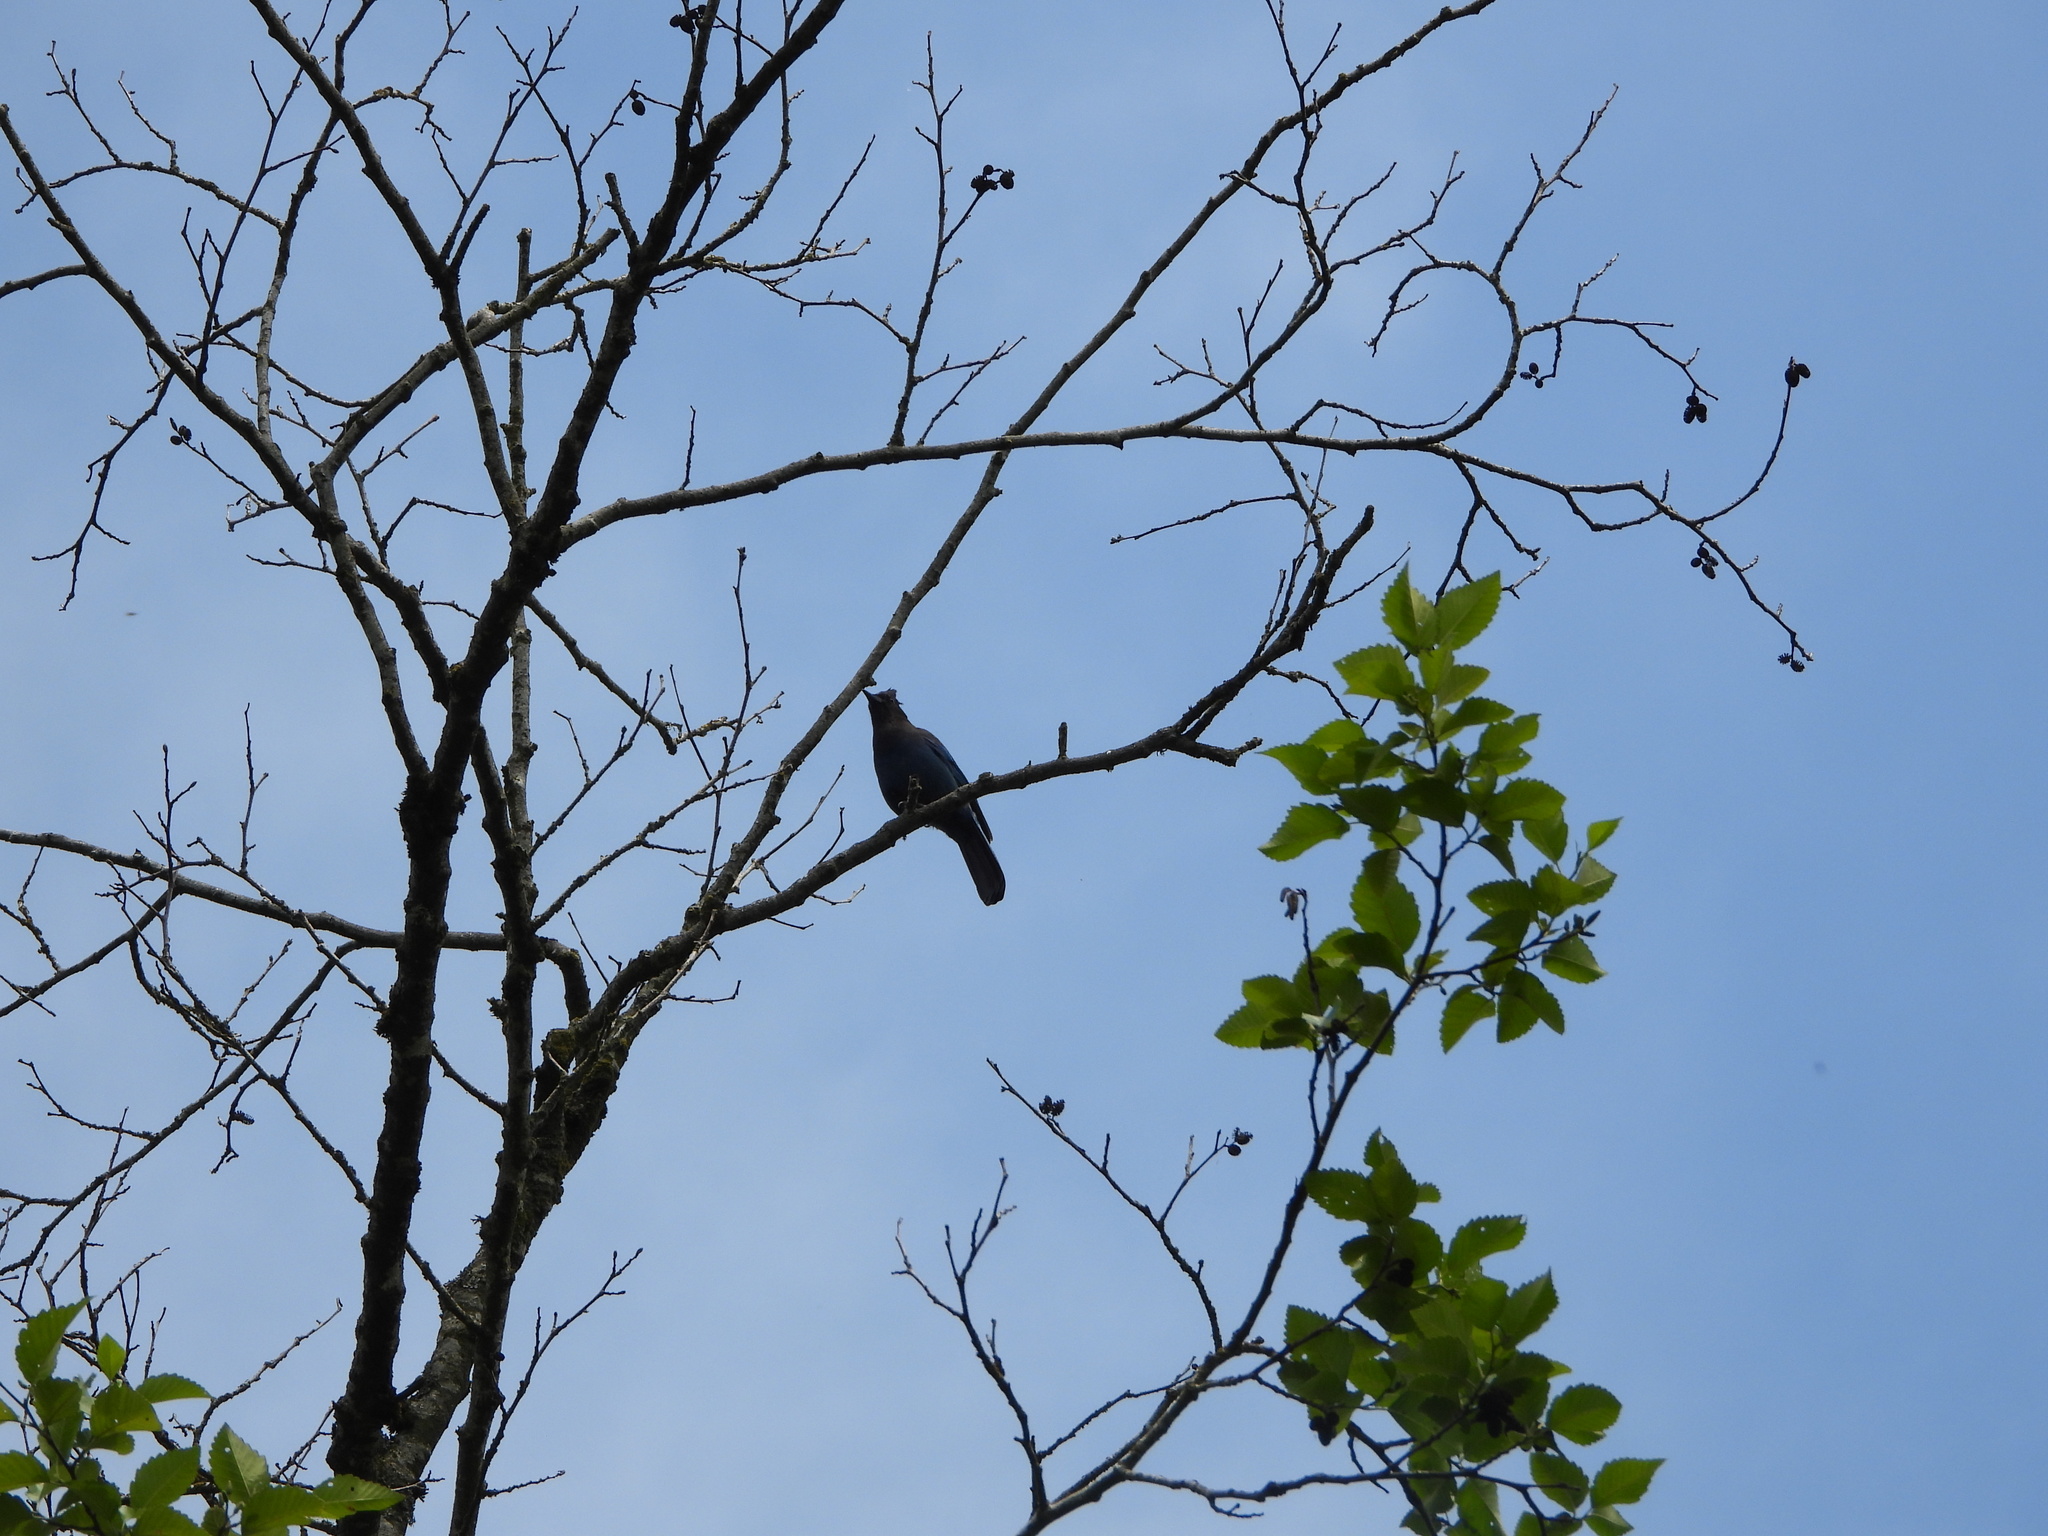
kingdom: Animalia
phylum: Chordata
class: Aves
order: Passeriformes
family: Corvidae
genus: Cyanocitta
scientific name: Cyanocitta stelleri
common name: Steller's jay
